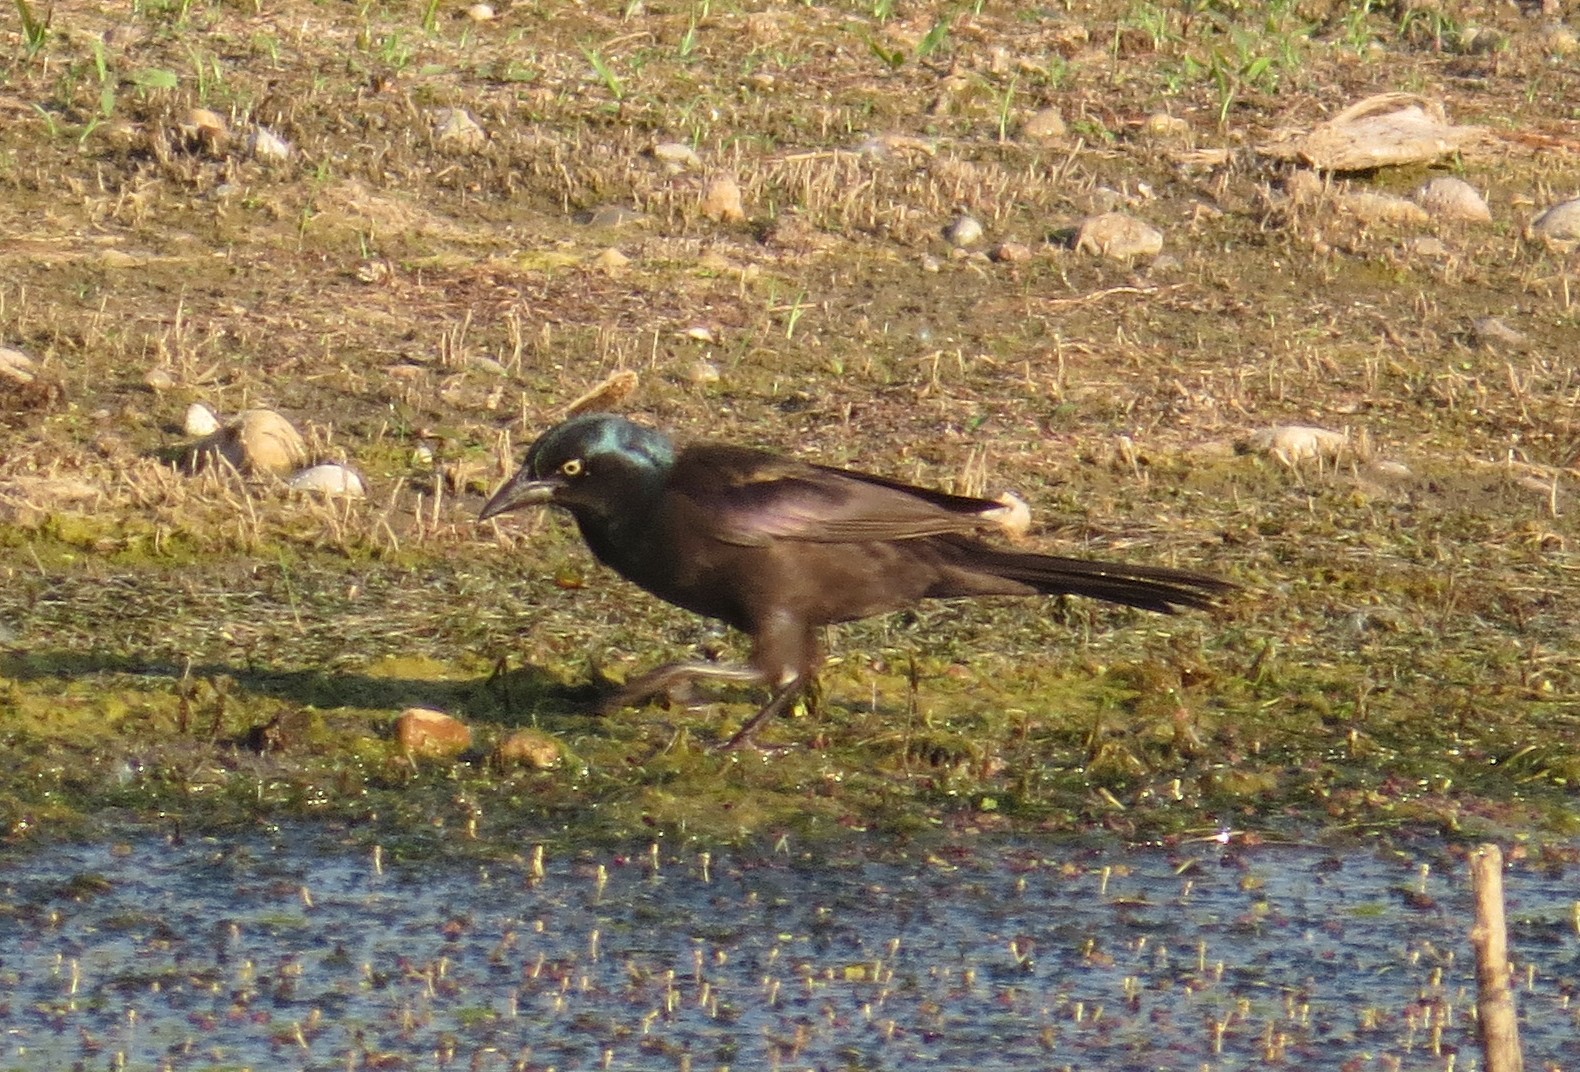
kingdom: Animalia
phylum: Chordata
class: Aves
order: Passeriformes
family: Icteridae
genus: Quiscalus
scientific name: Quiscalus quiscula
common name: Common grackle
